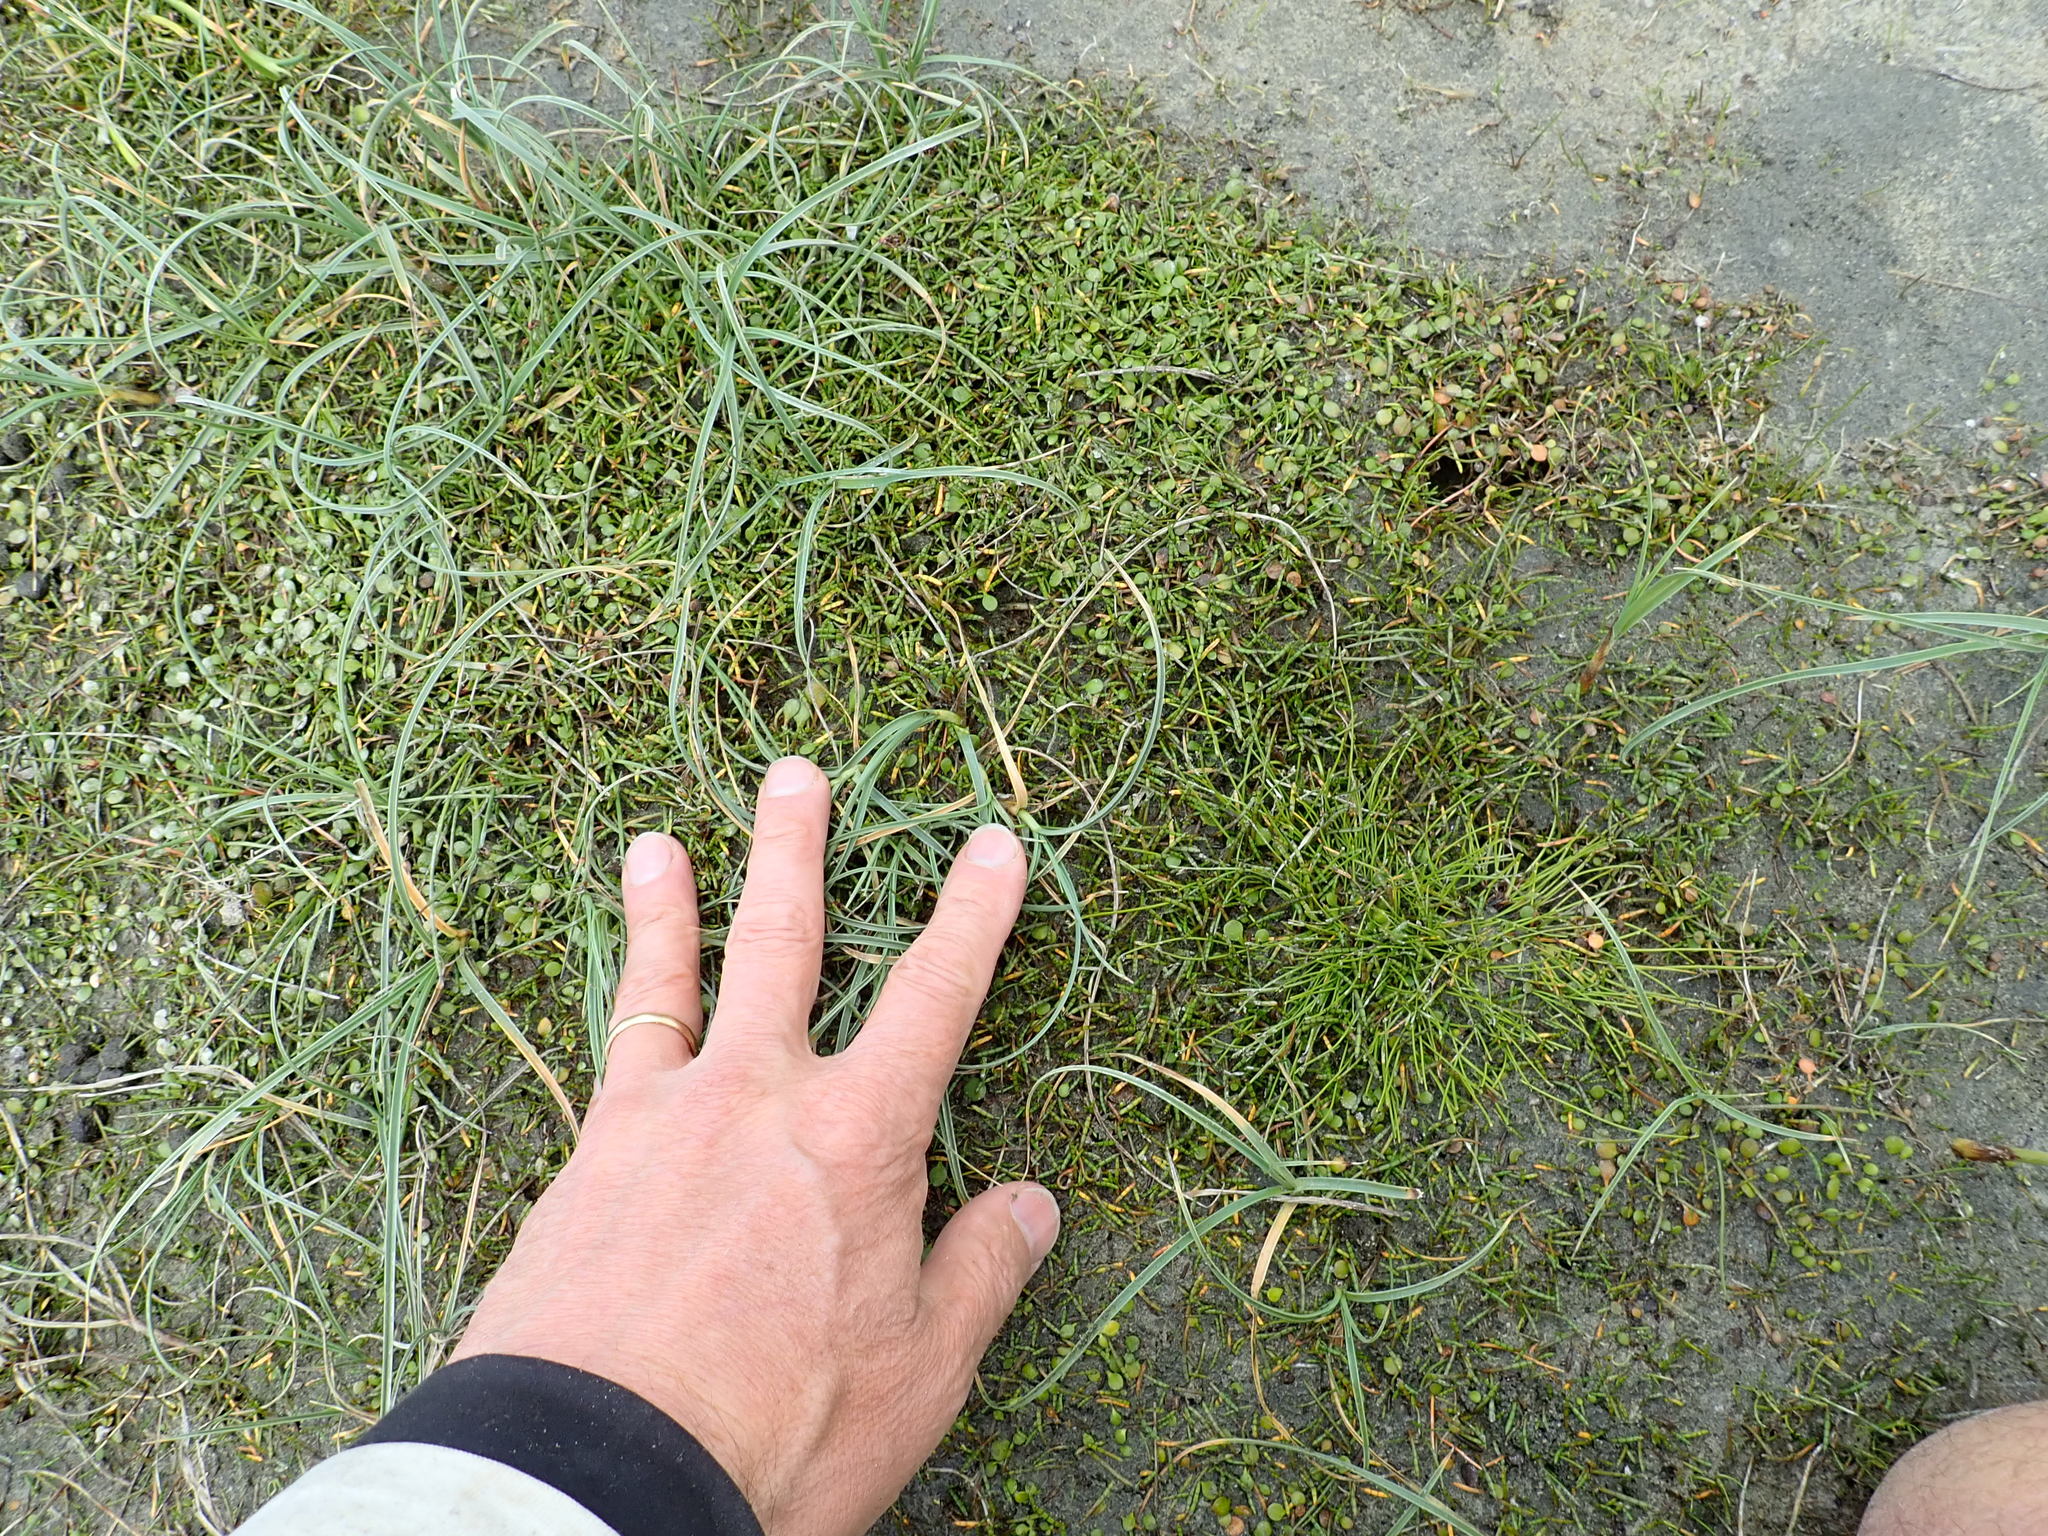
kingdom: Plantae
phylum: Tracheophyta
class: Magnoliopsida
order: Apiales
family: Apiaceae
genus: Lilaeopsis
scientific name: Lilaeopsis novae-zelandiae
